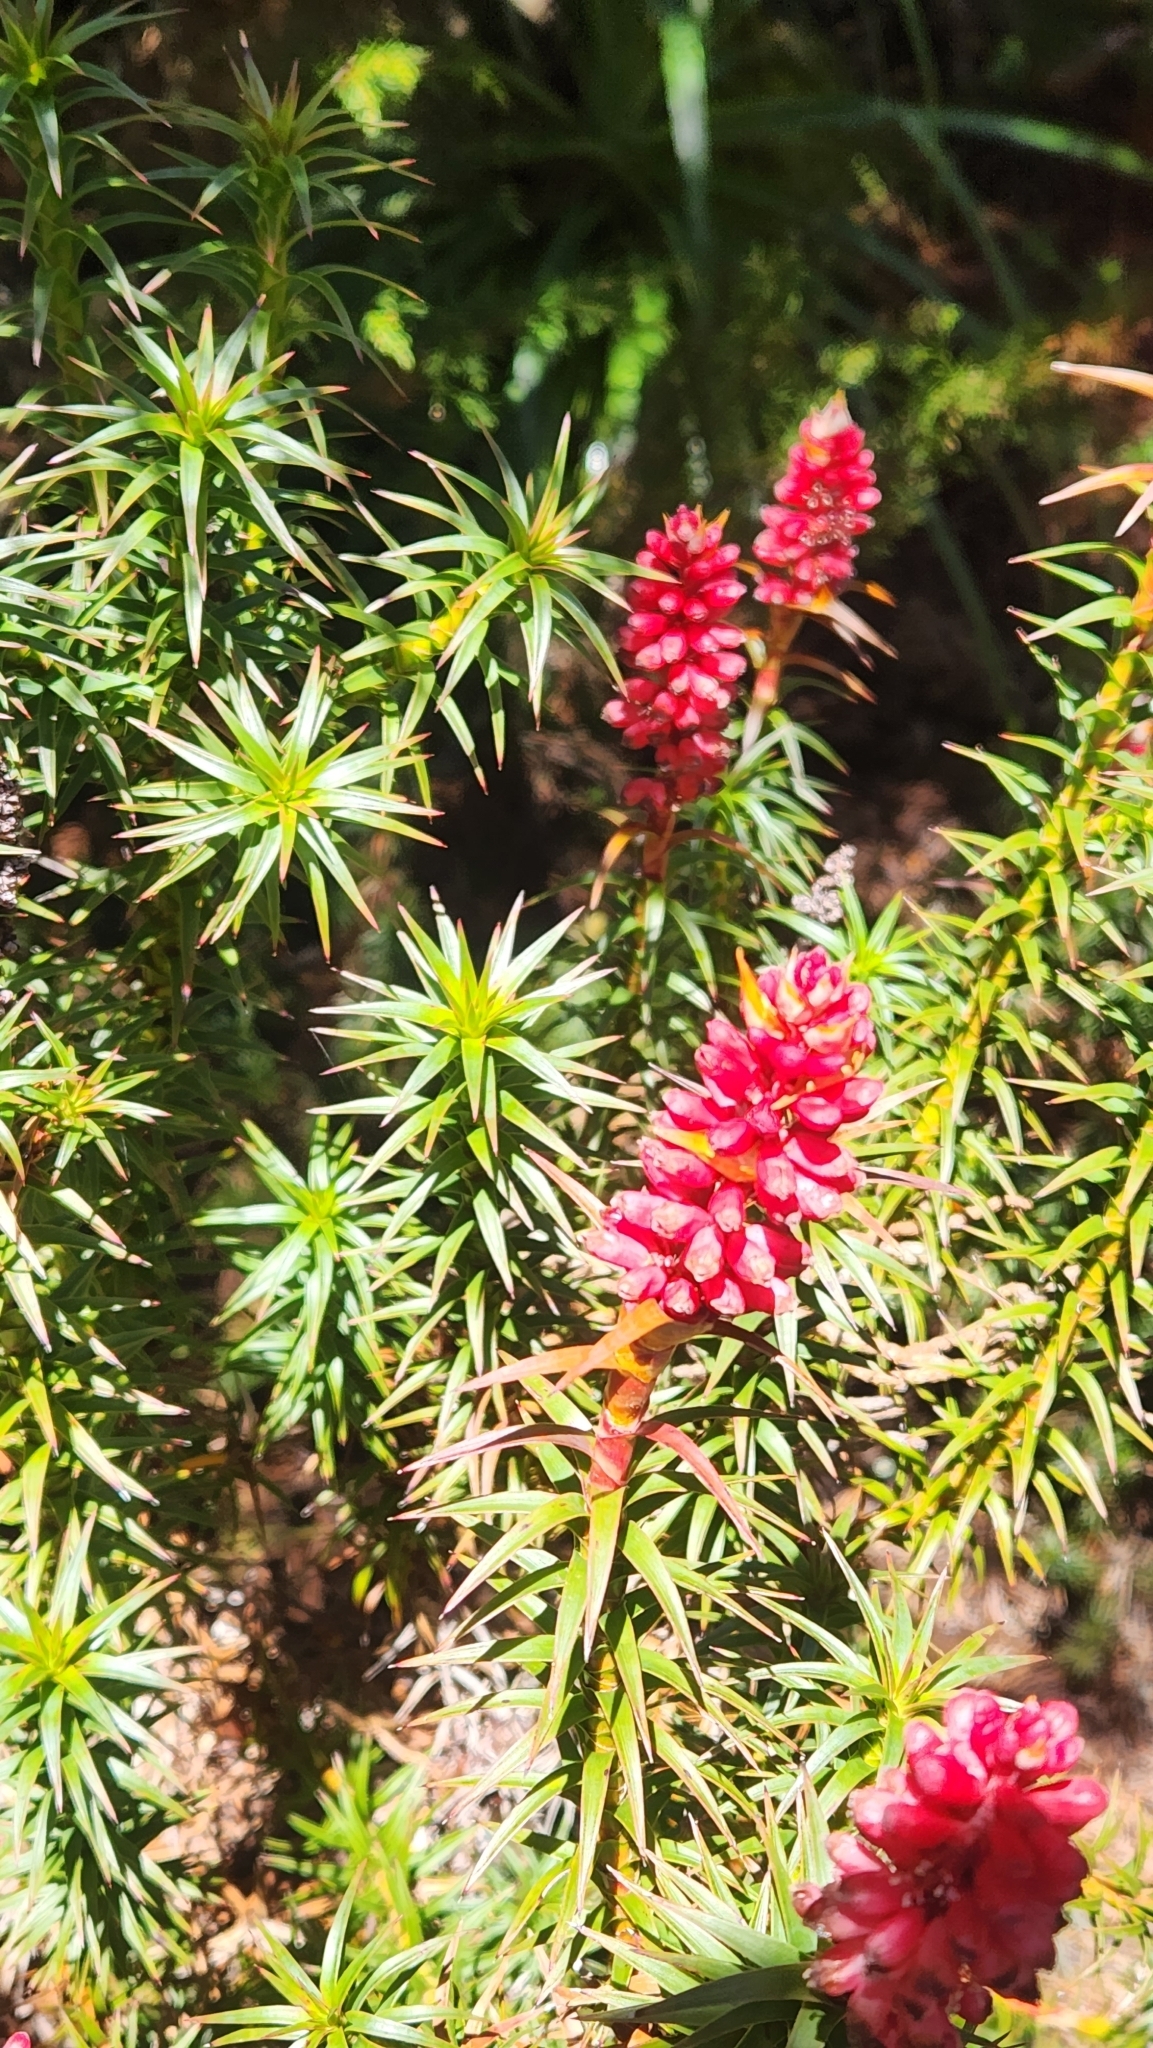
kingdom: Plantae
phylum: Tracheophyta
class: Magnoliopsida
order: Ericales
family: Ericaceae
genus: Dracophyllum
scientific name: Dracophyllum persistentifolium
